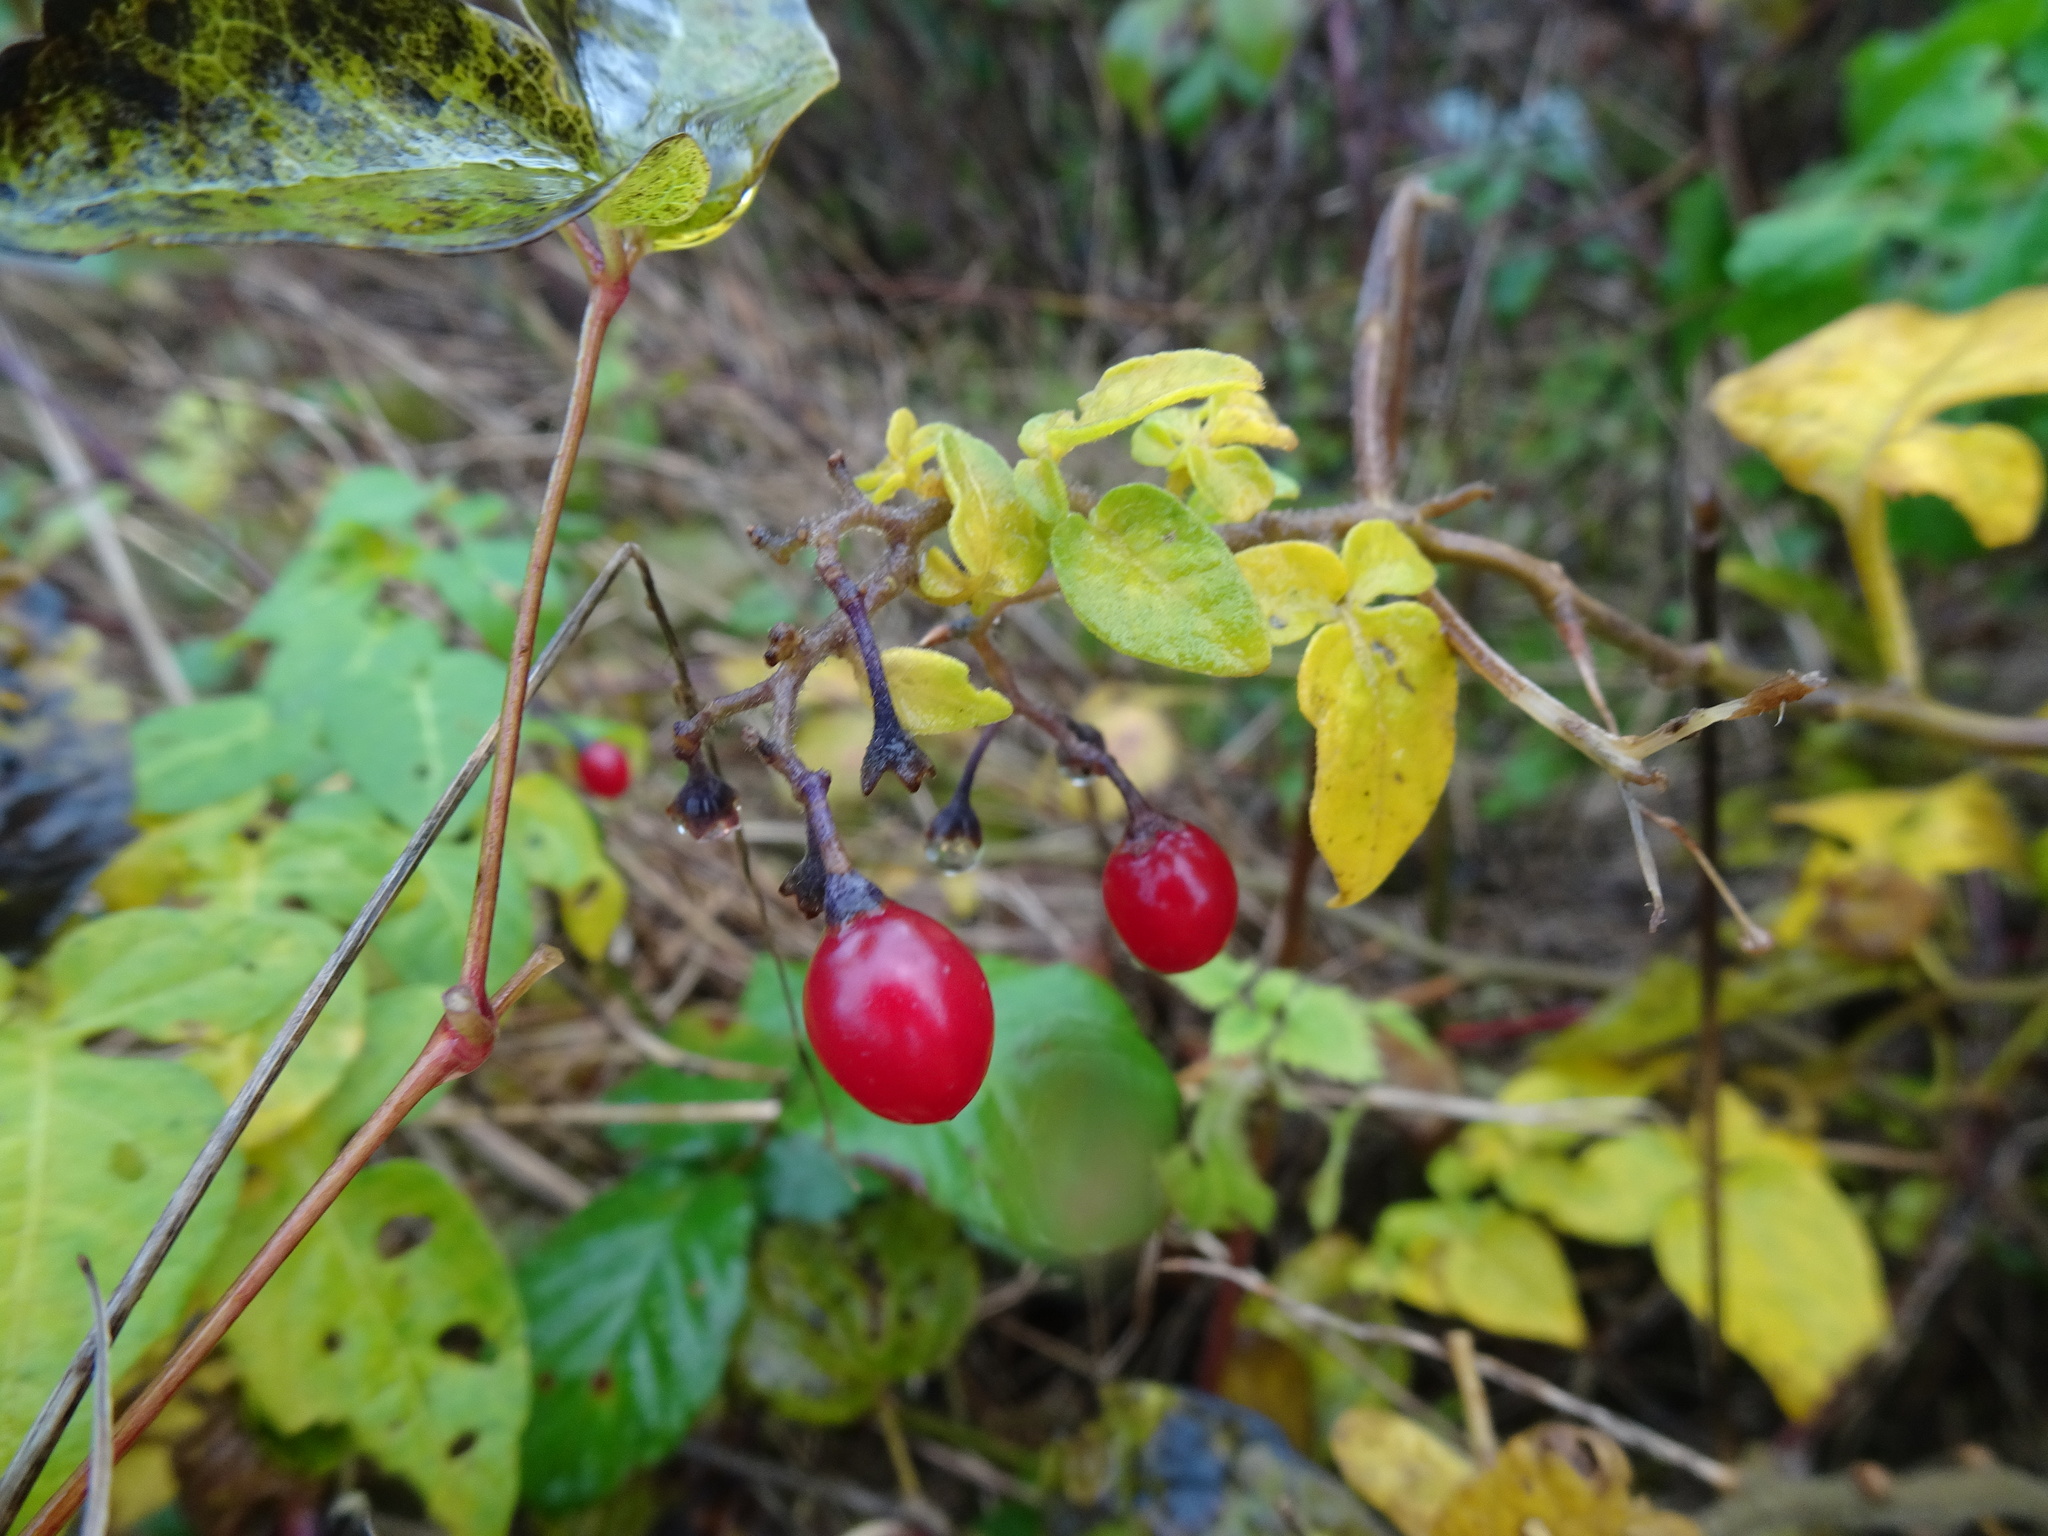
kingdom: Plantae
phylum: Tracheophyta
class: Magnoliopsida
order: Solanales
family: Solanaceae
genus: Solanum
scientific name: Solanum dulcamara
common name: Climbing nightshade
